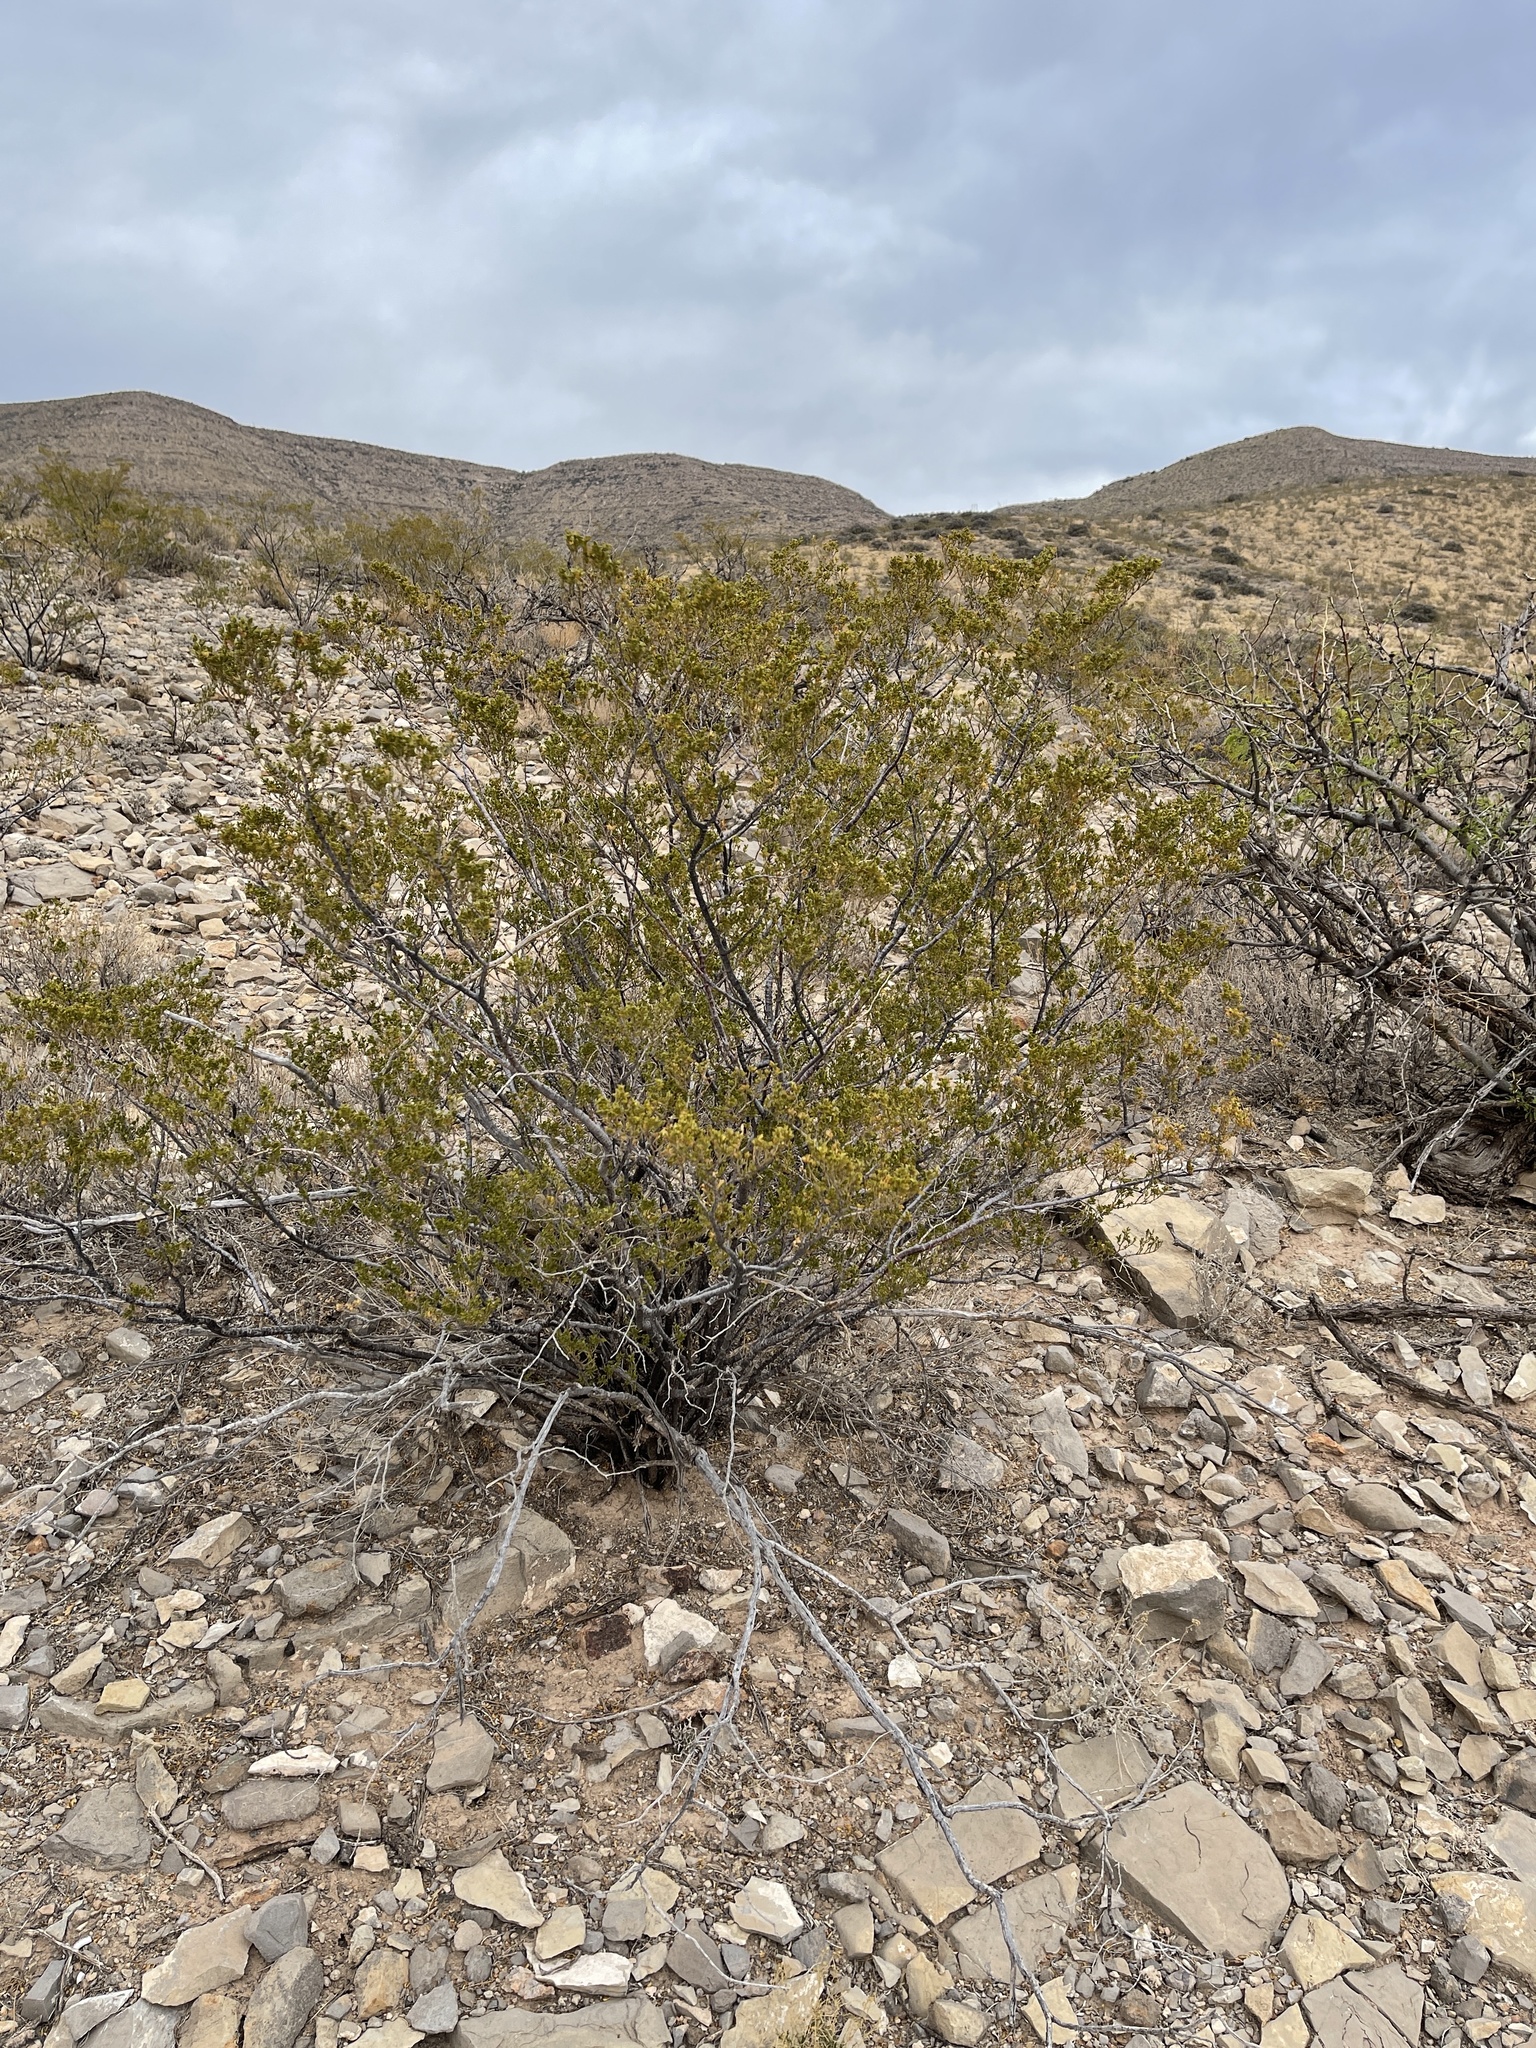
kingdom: Plantae
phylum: Tracheophyta
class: Magnoliopsida
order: Zygophyllales
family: Zygophyllaceae
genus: Larrea
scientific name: Larrea tridentata
